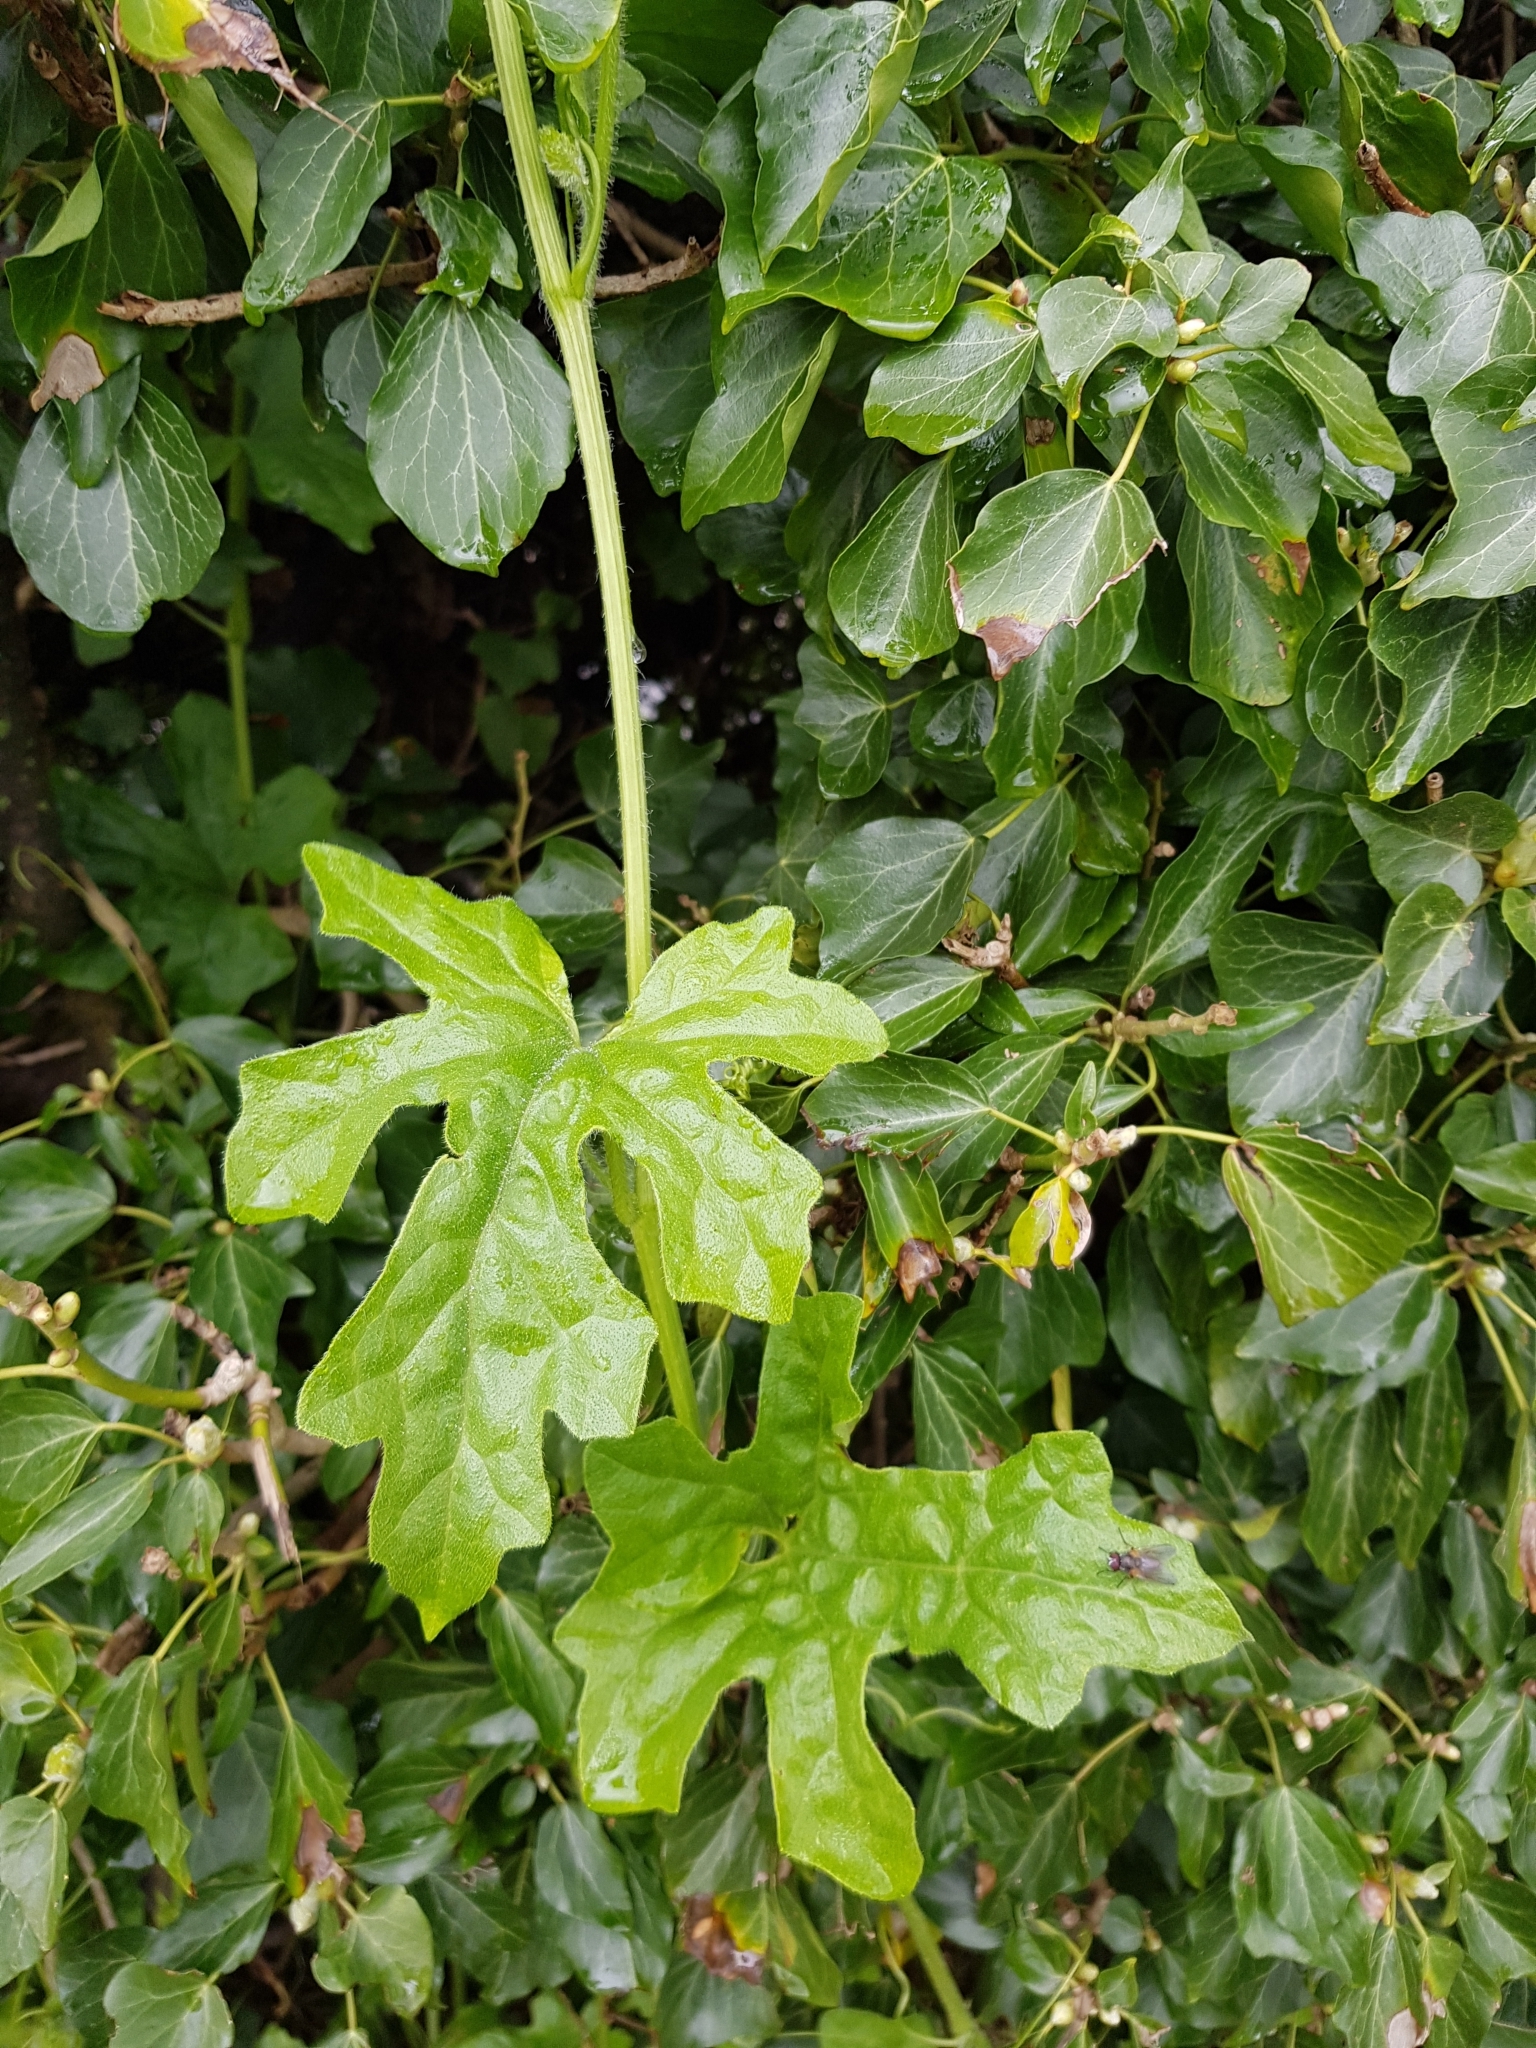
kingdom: Plantae
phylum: Tracheophyta
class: Magnoliopsida
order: Cucurbitales
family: Cucurbitaceae
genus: Bryonia
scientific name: Bryonia dioica
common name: White bryony
